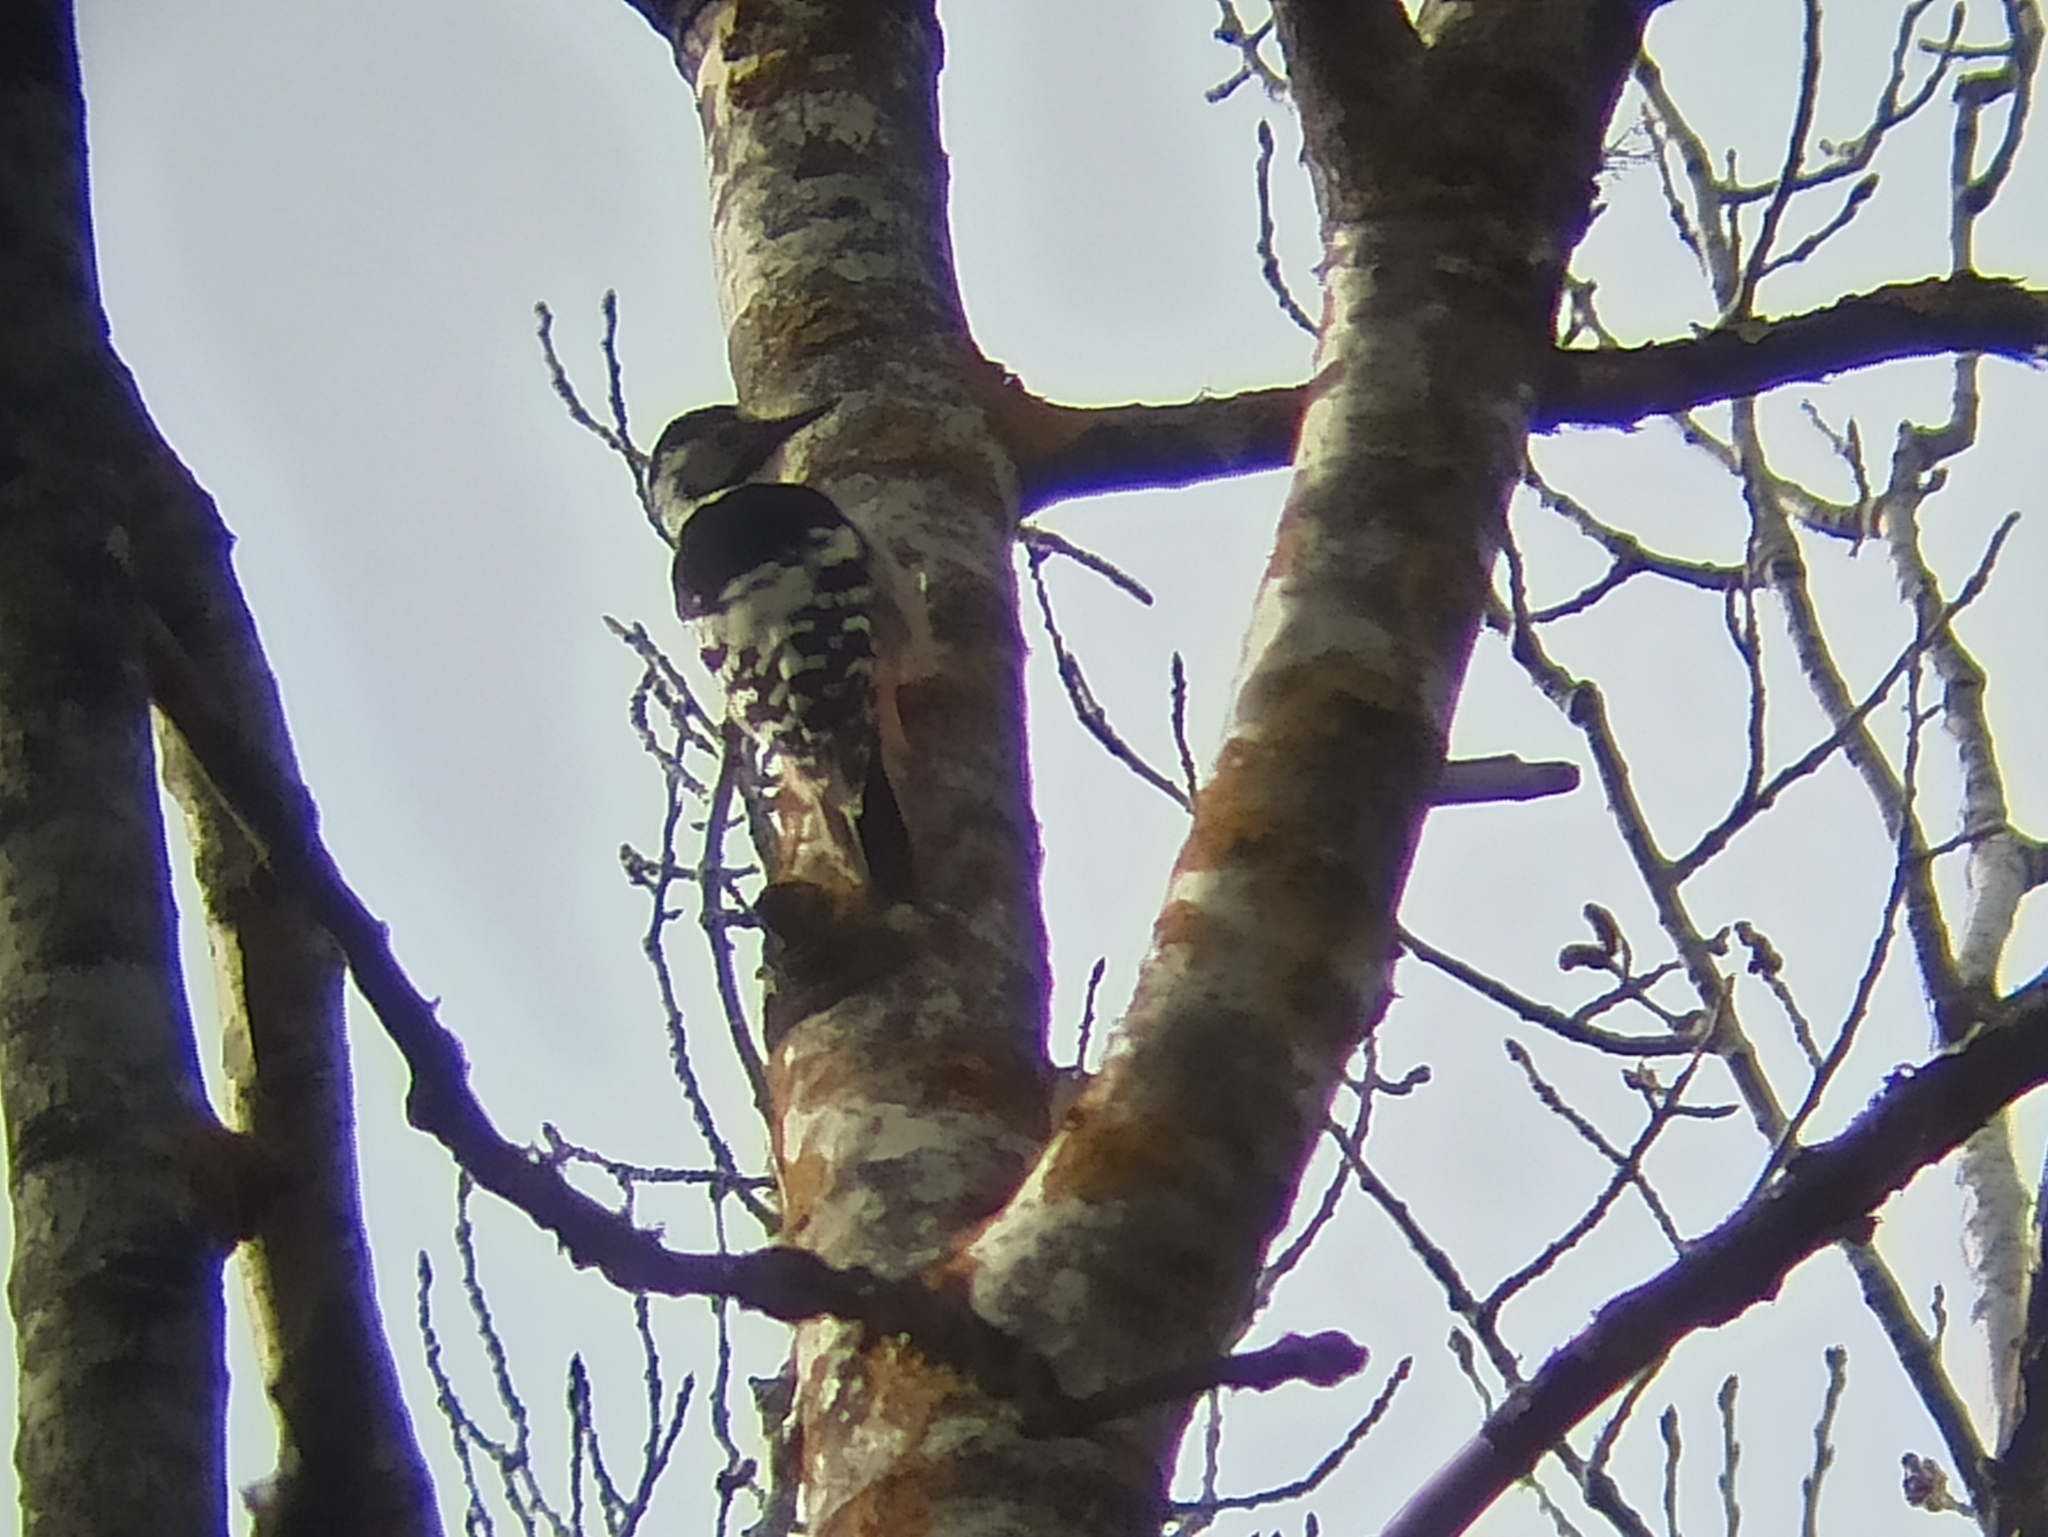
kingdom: Animalia
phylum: Chordata
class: Aves
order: Piciformes
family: Picidae
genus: Dendrocopos
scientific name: Dendrocopos leucotos
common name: White-backed woodpecker
